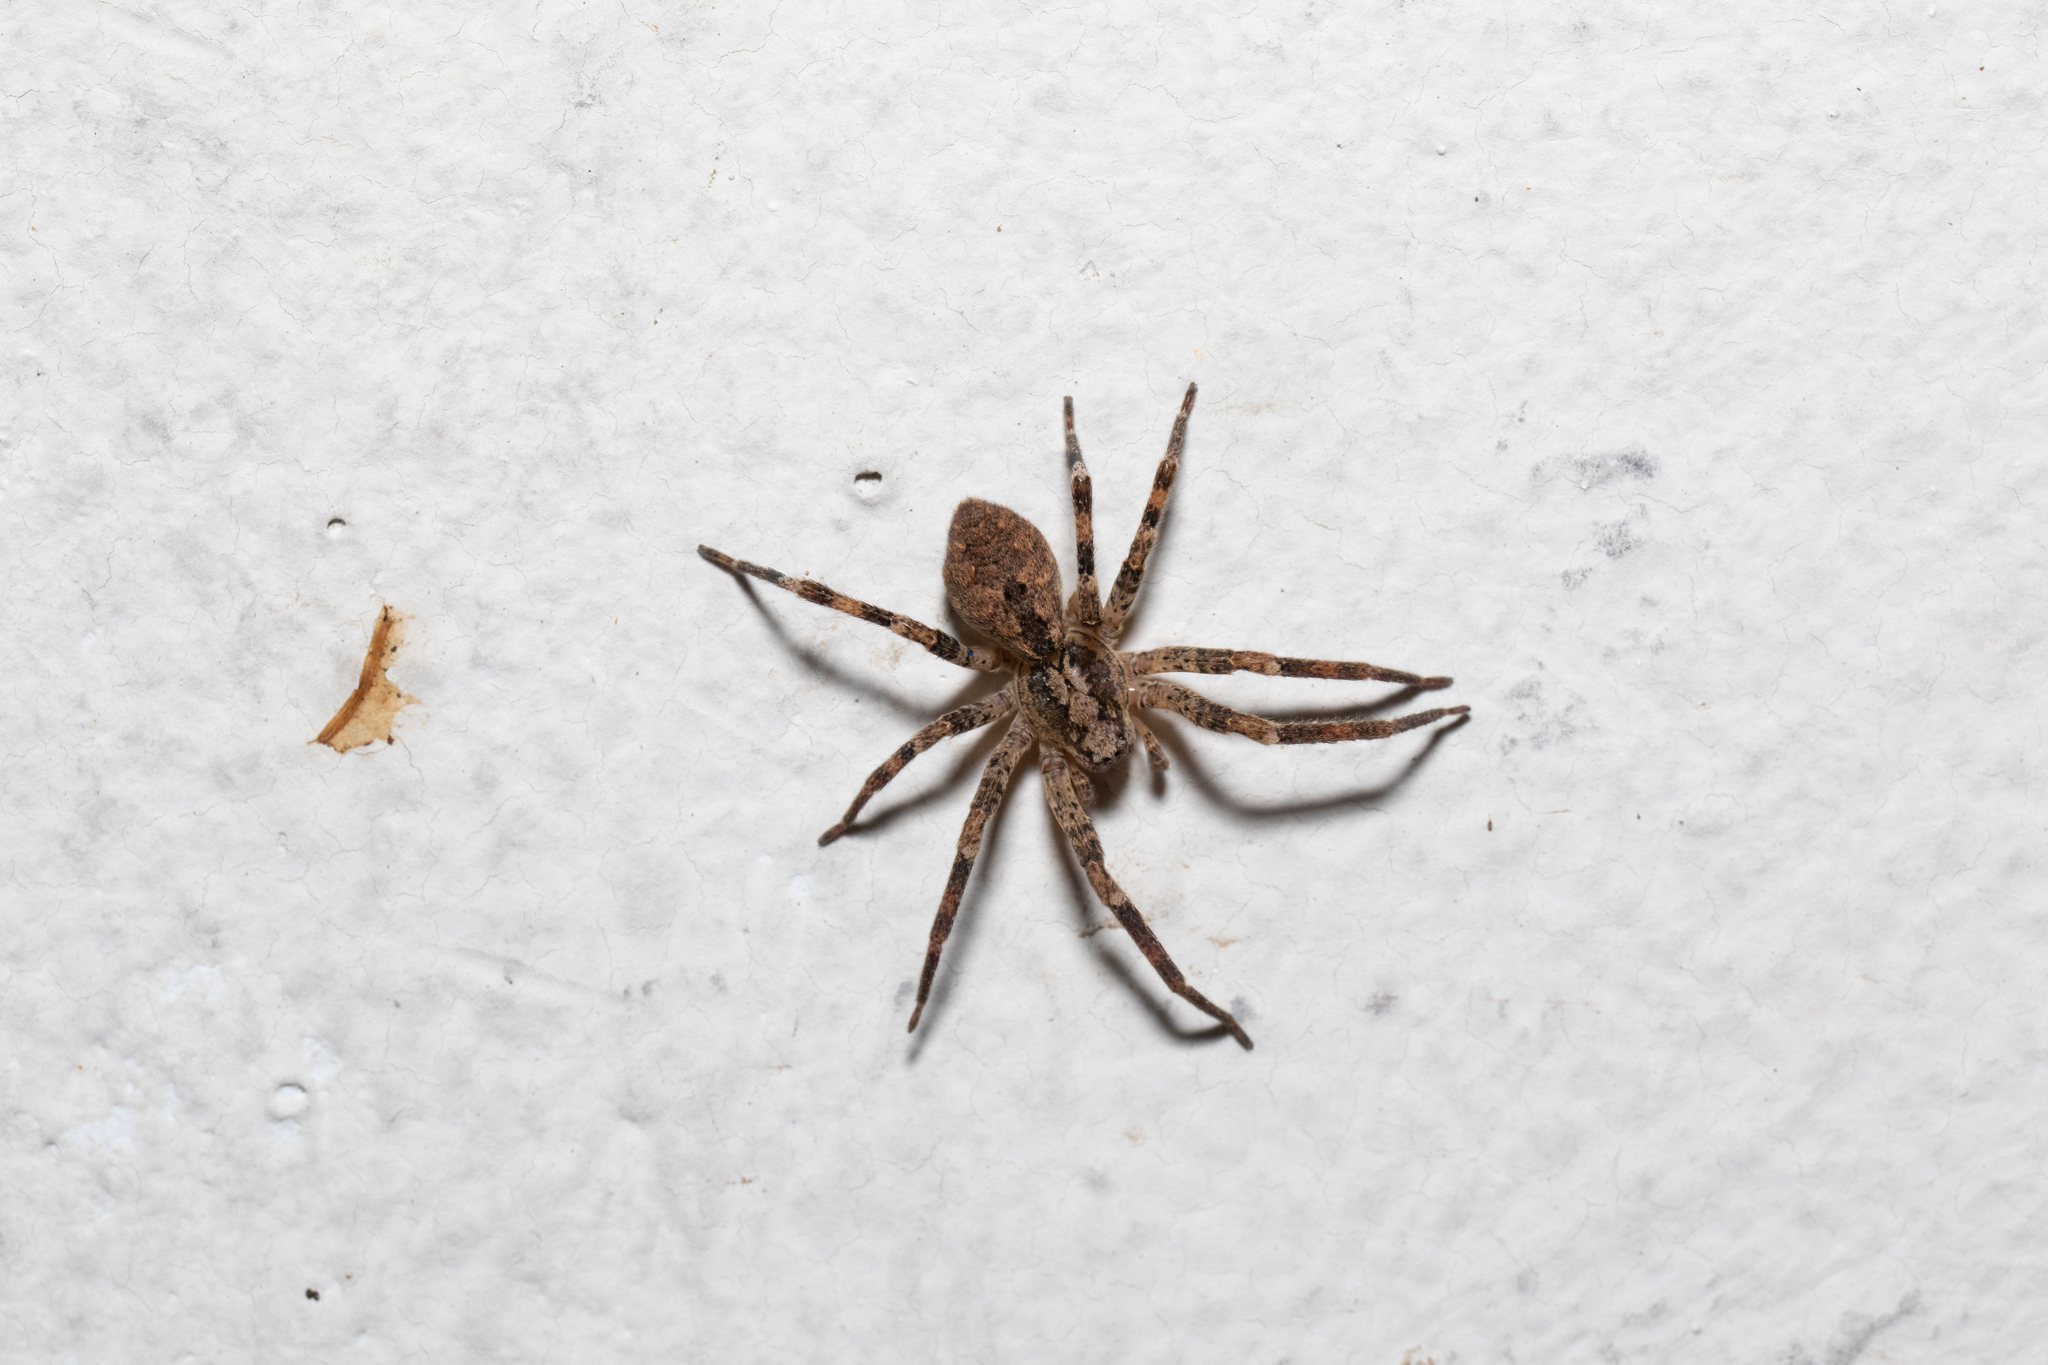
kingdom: Animalia
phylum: Arthropoda
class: Arachnida
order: Araneae
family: Zoropsidae
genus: Zoropsis
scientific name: Zoropsis spinimana
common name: Zoropsid spider
